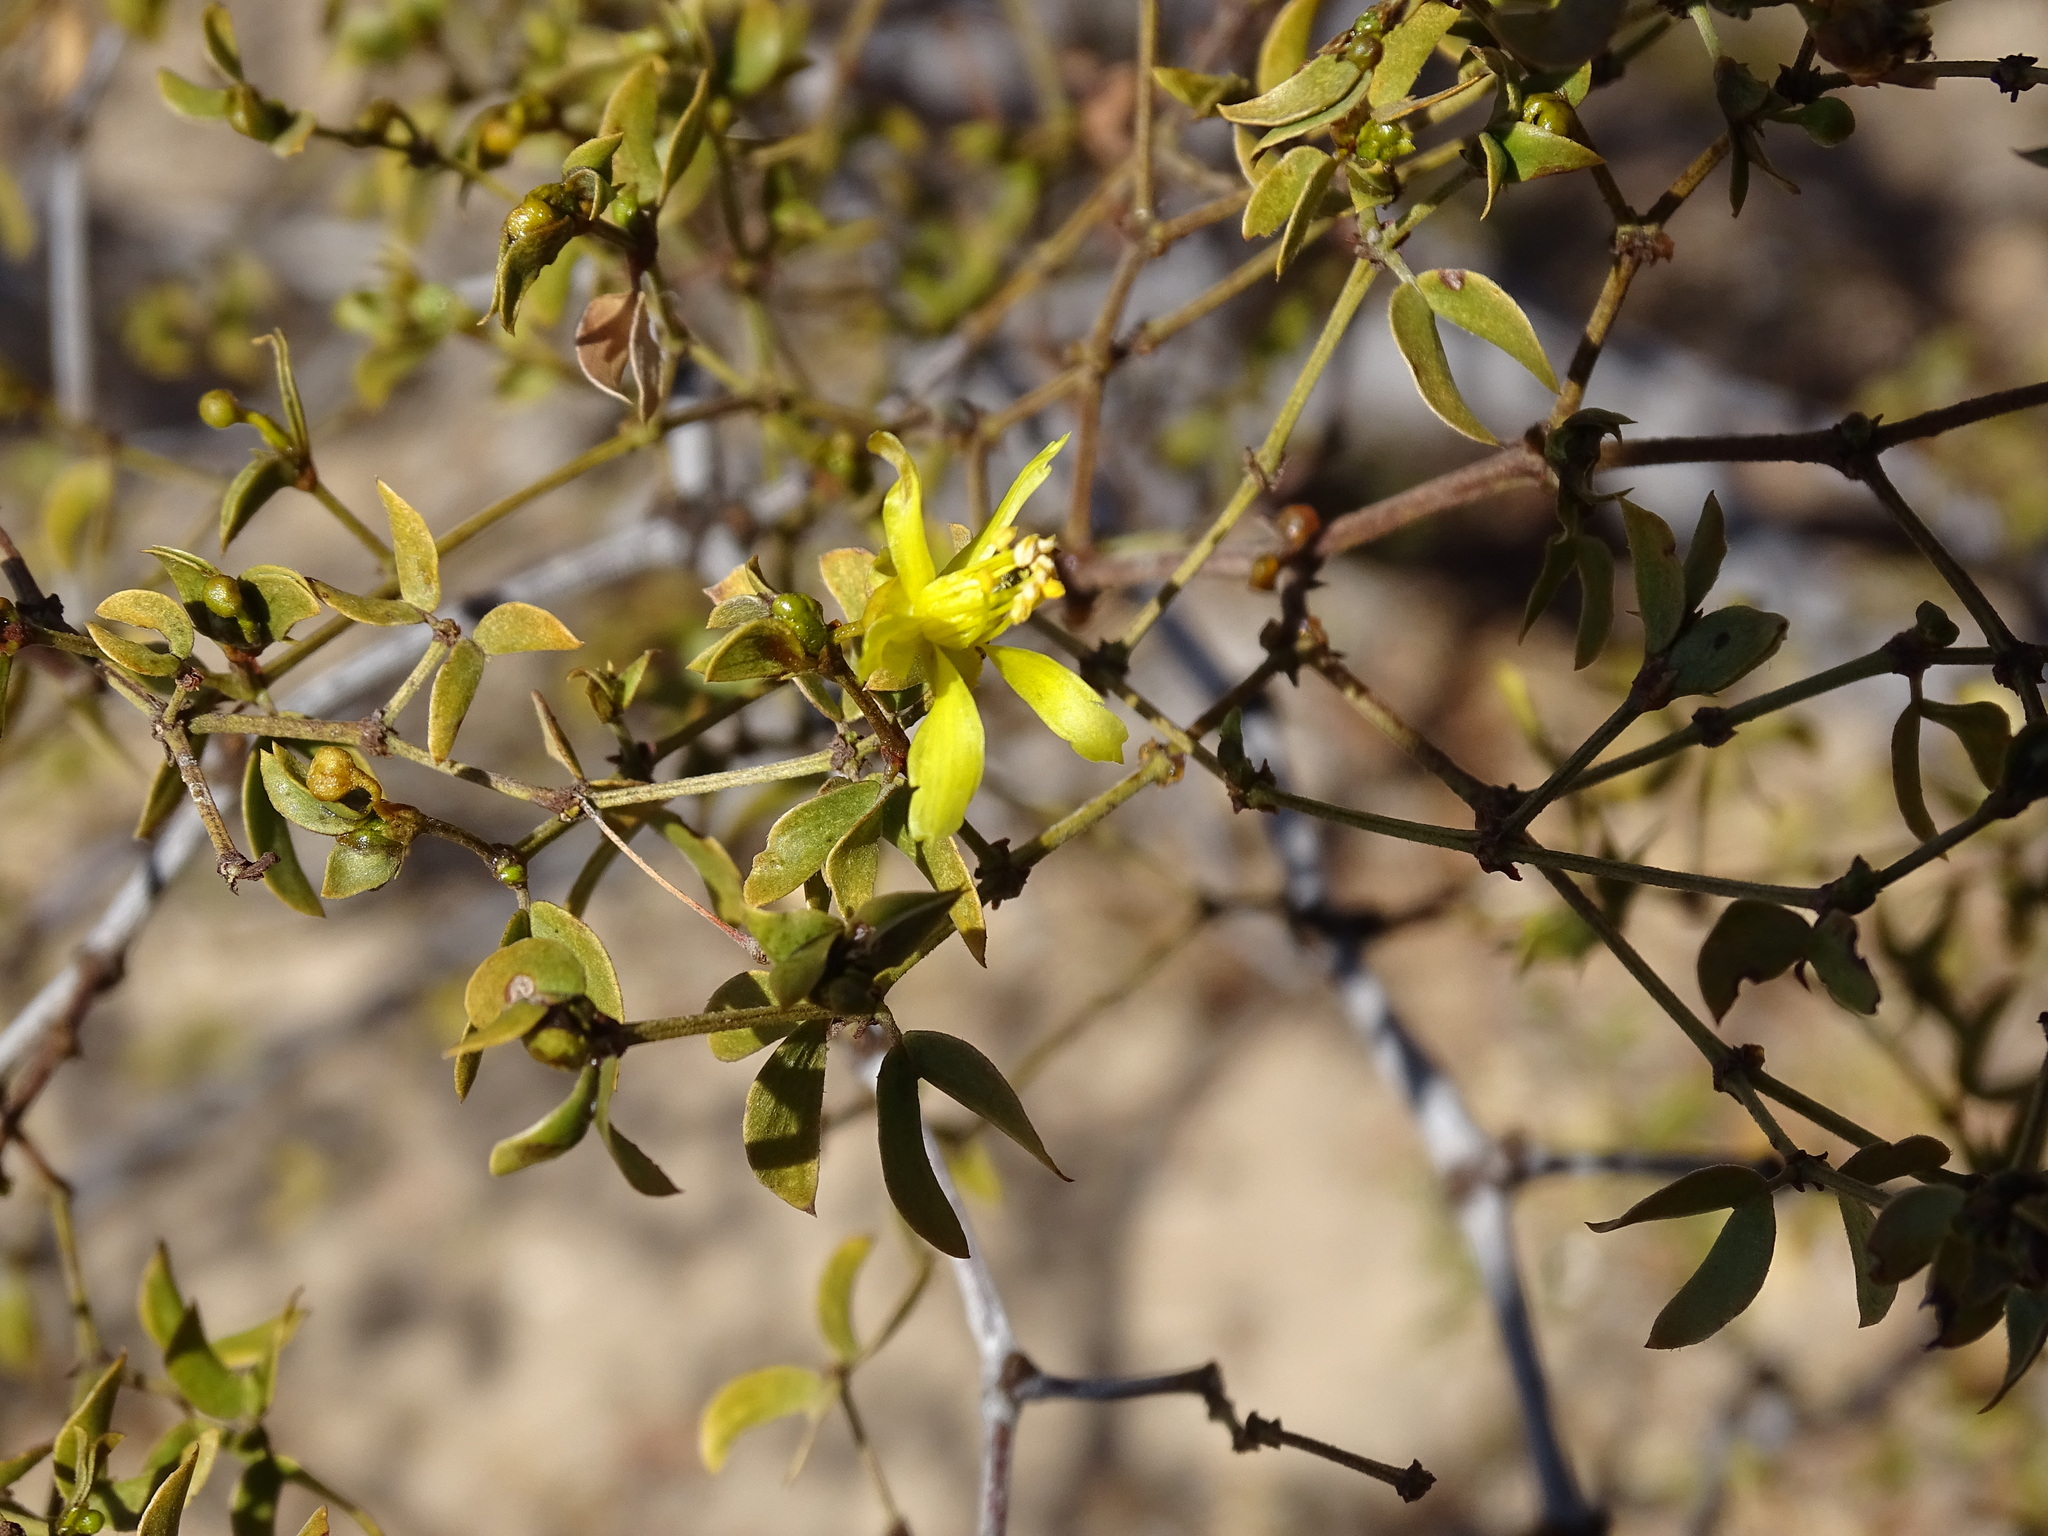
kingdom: Plantae
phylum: Tracheophyta
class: Magnoliopsida
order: Zygophyllales
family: Zygophyllaceae
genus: Larrea
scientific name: Larrea tridentata
